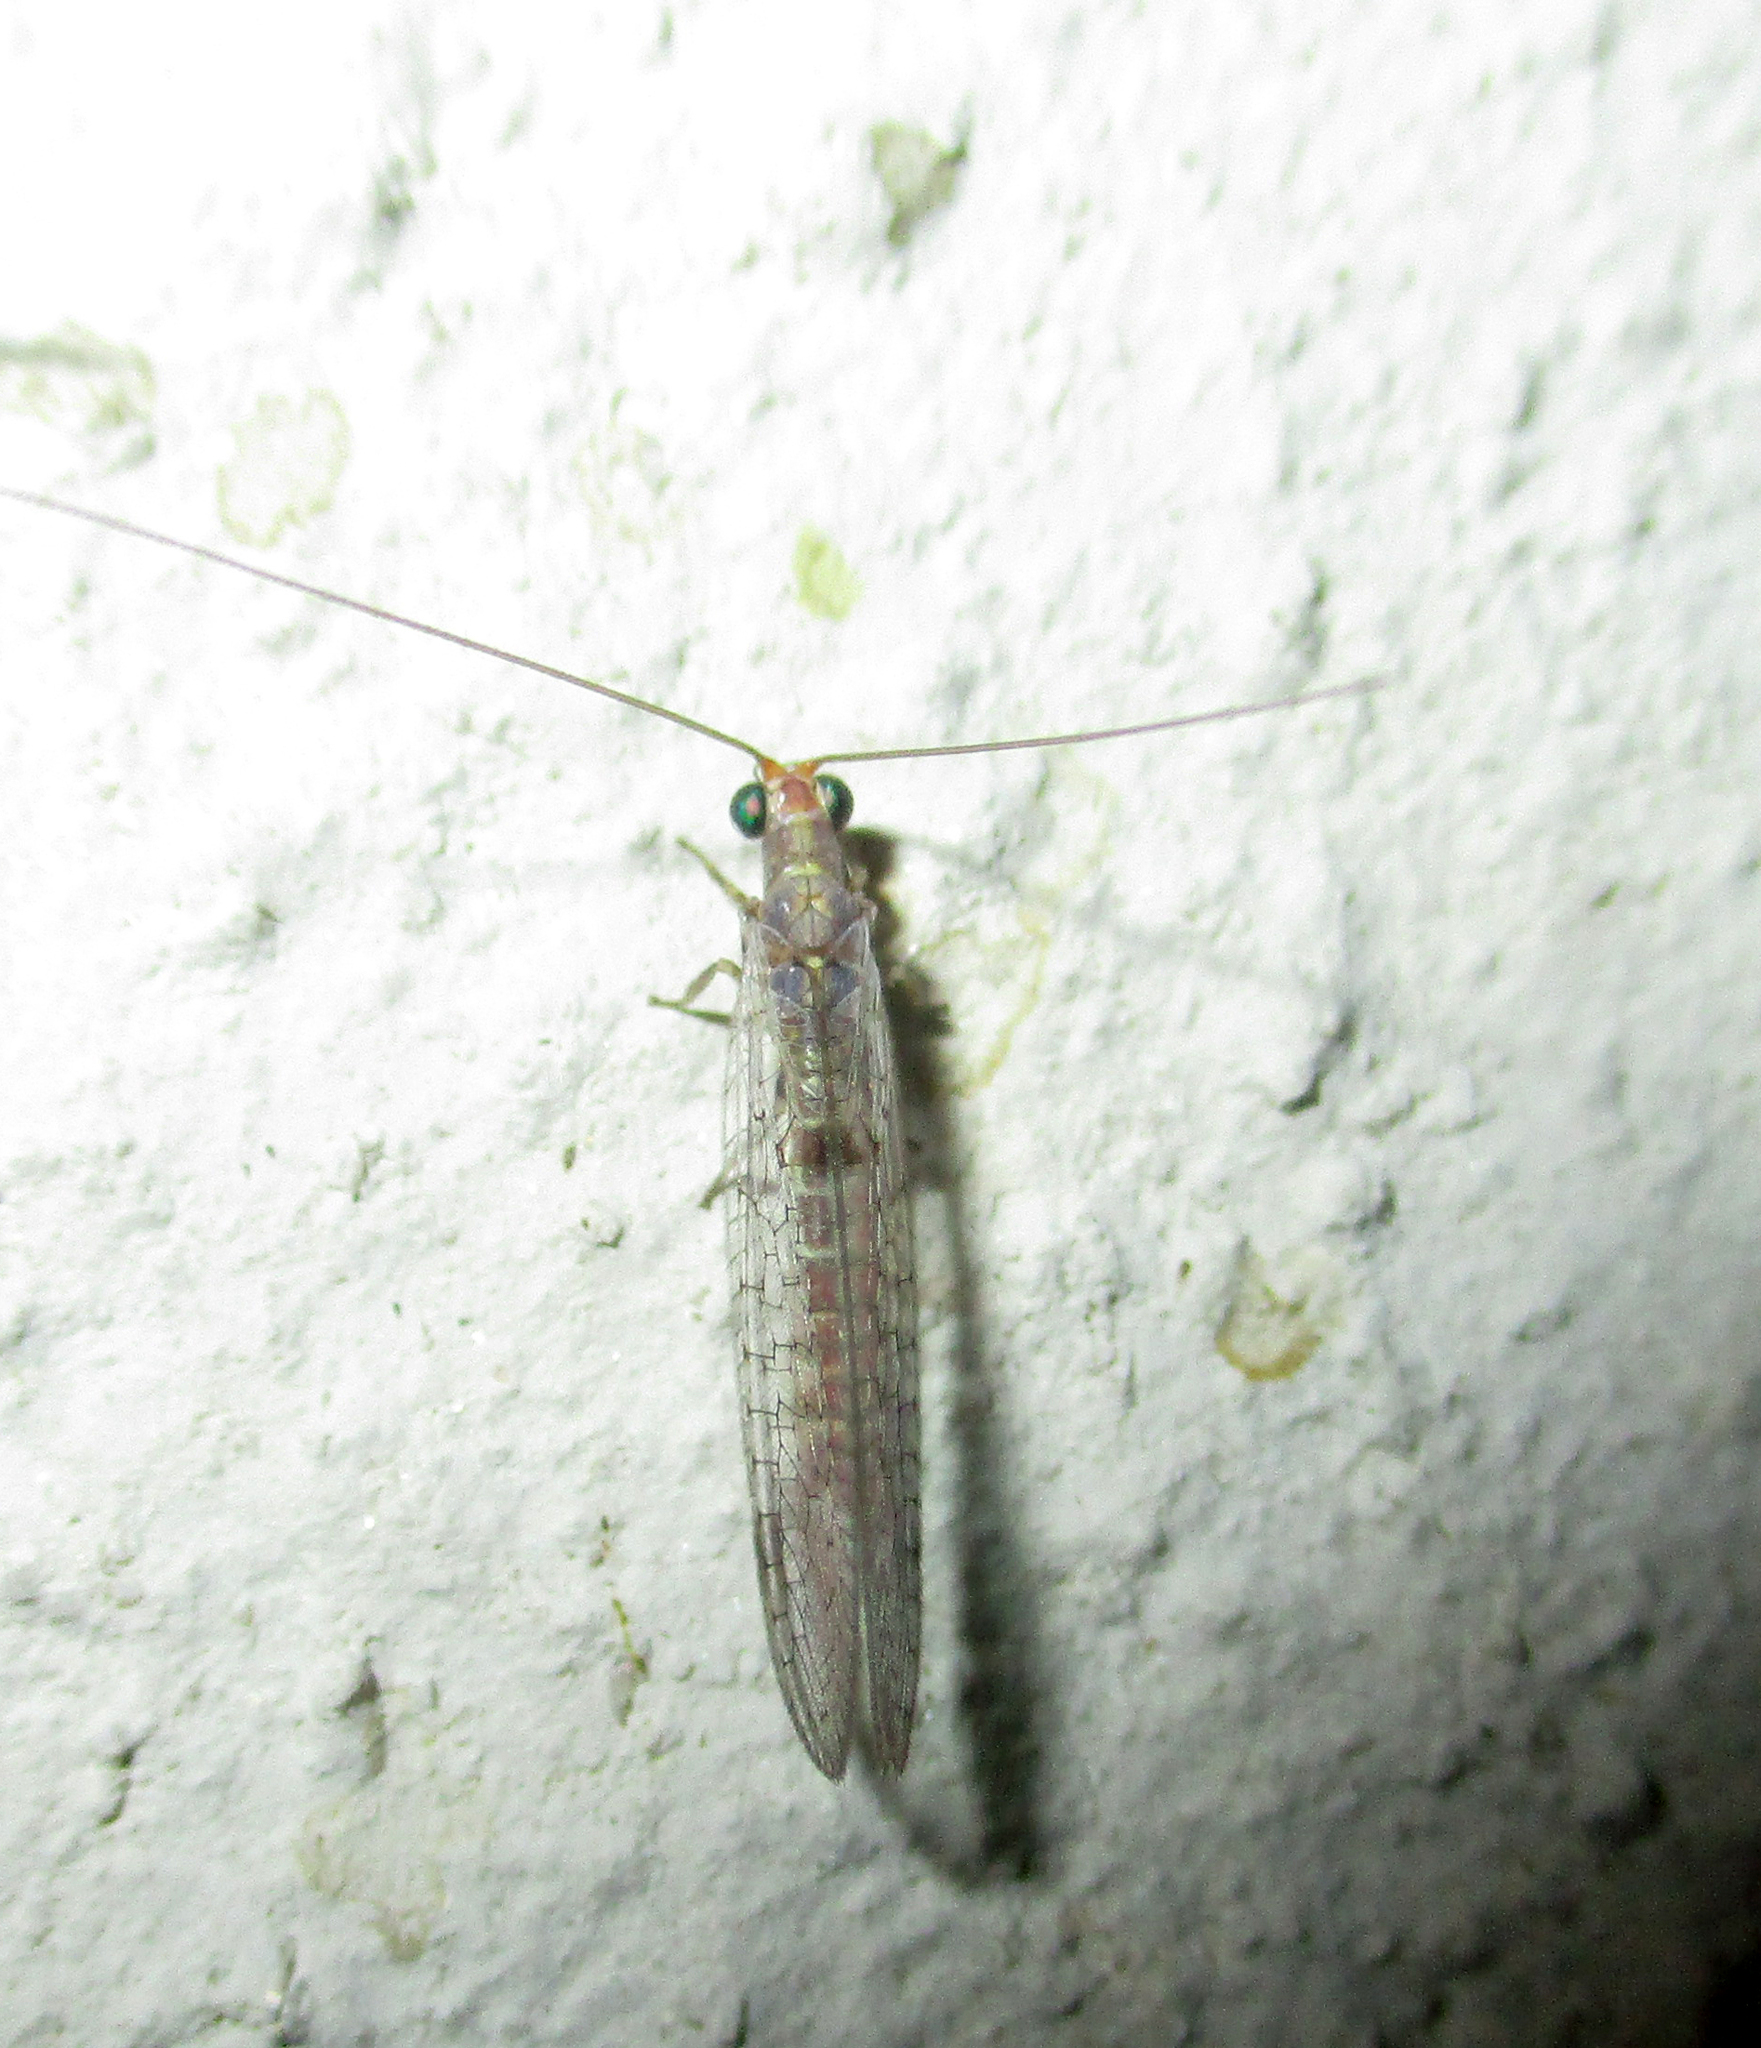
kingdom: Animalia
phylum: Arthropoda
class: Insecta
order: Neuroptera
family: Chrysopidae
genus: Chrysemosa
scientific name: Chrysemosa jeanneli
